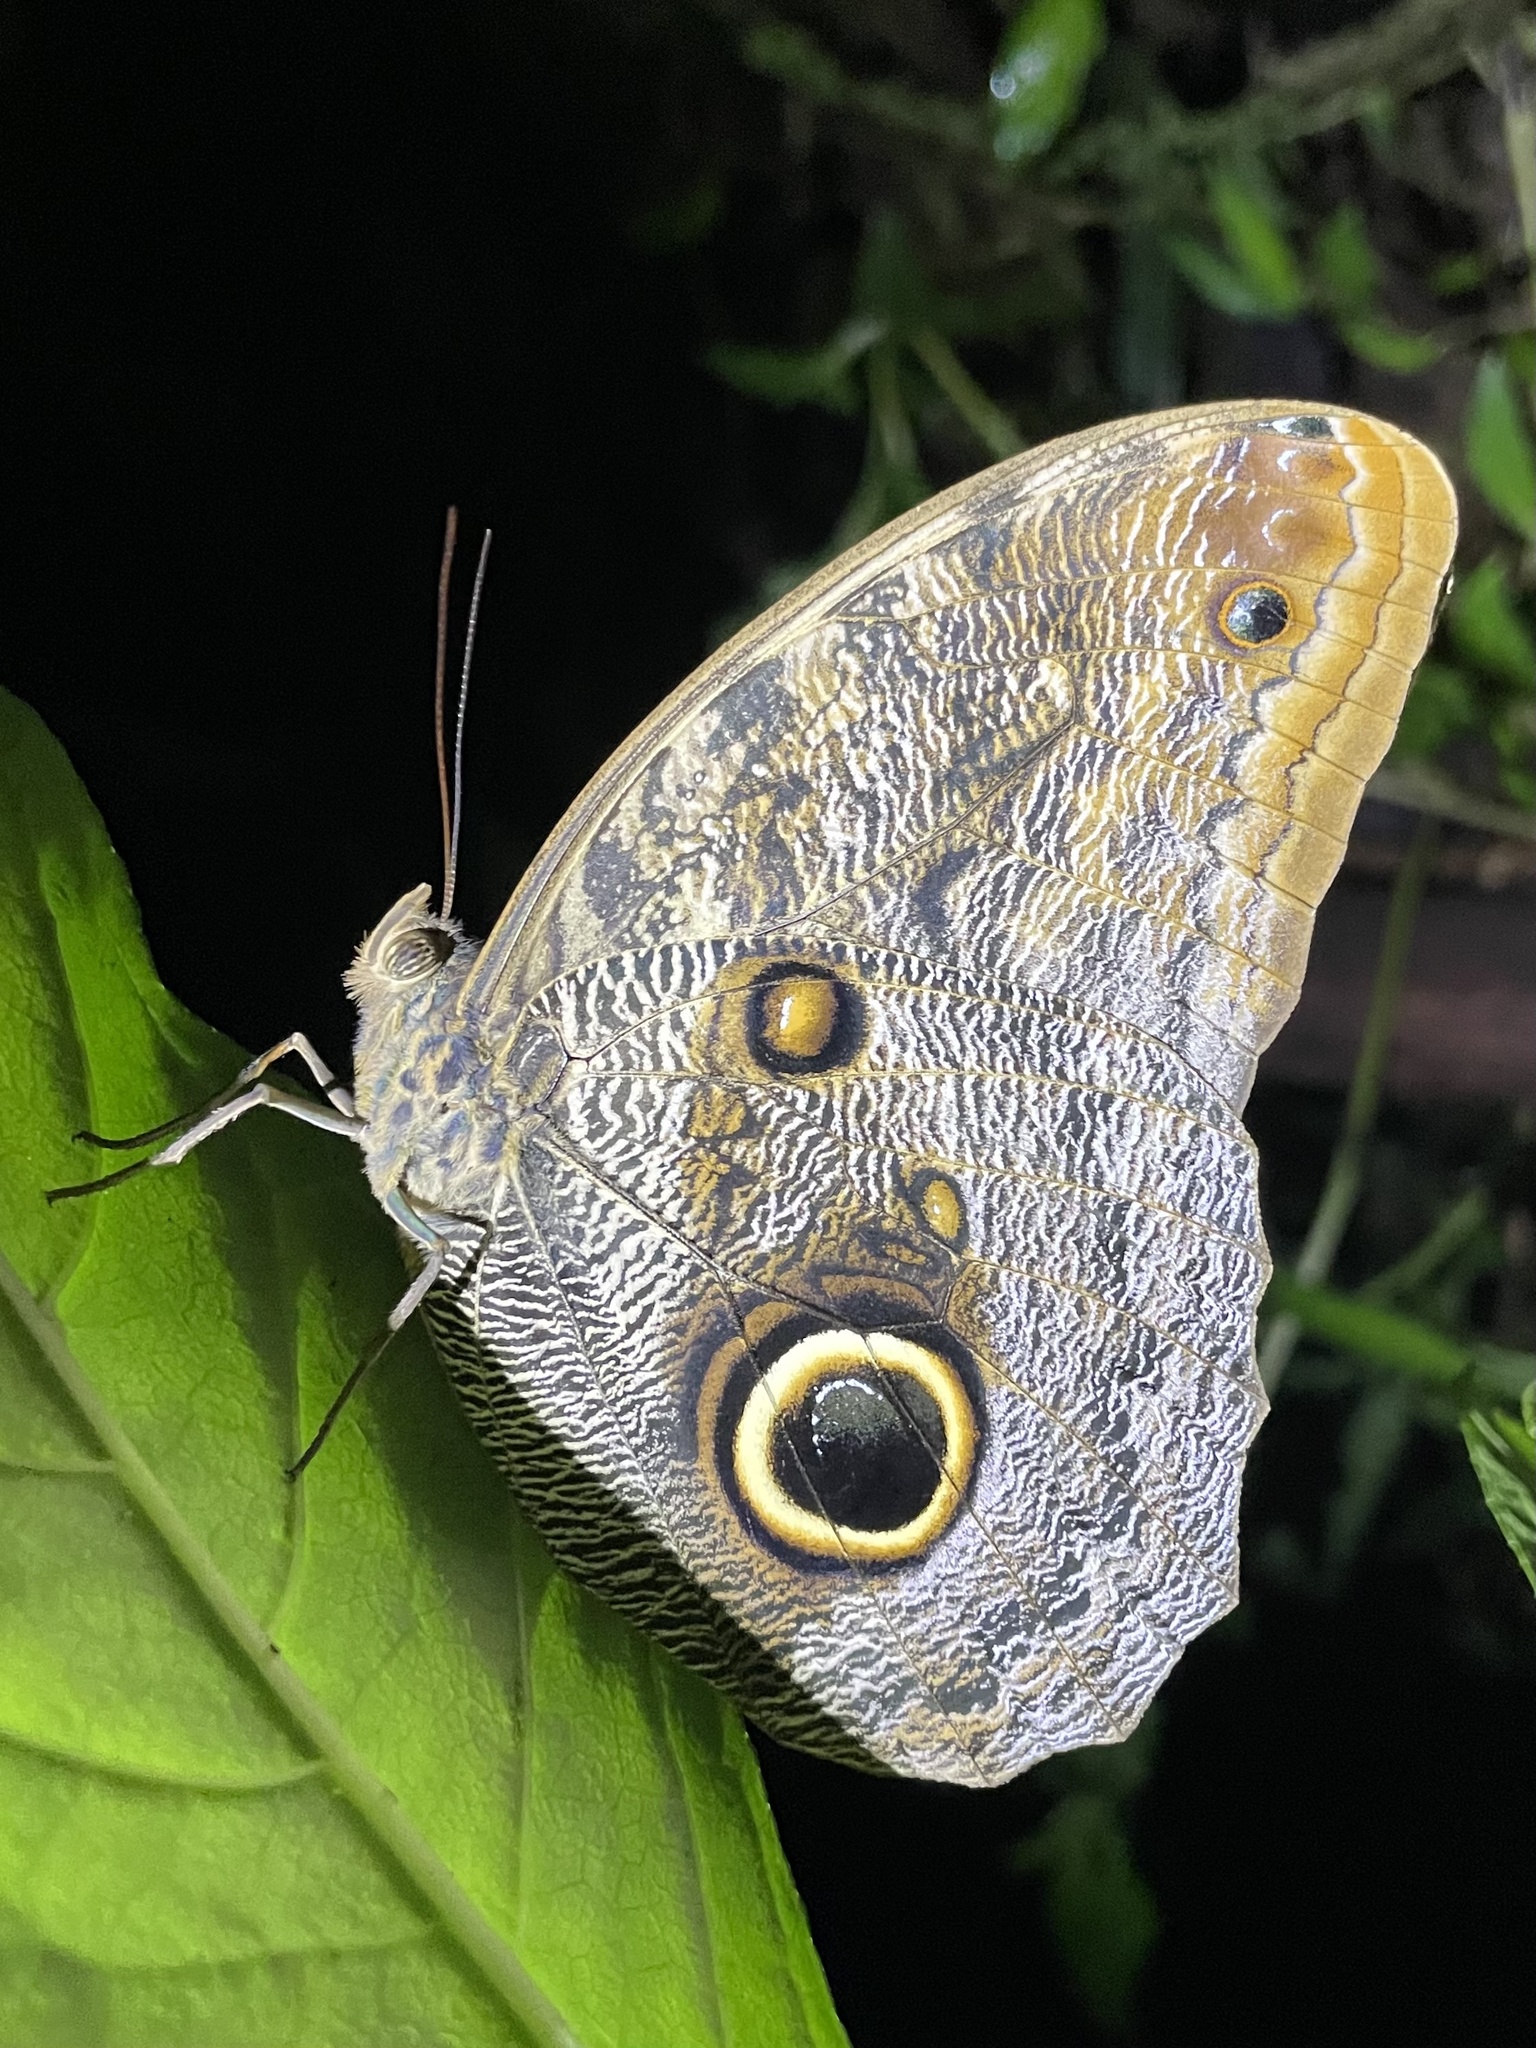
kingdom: Animalia
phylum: Arthropoda
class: Insecta
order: Lepidoptera
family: Nymphalidae
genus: Caligo
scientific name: Caligo brasiliensis
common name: Dark owl-butterfly
